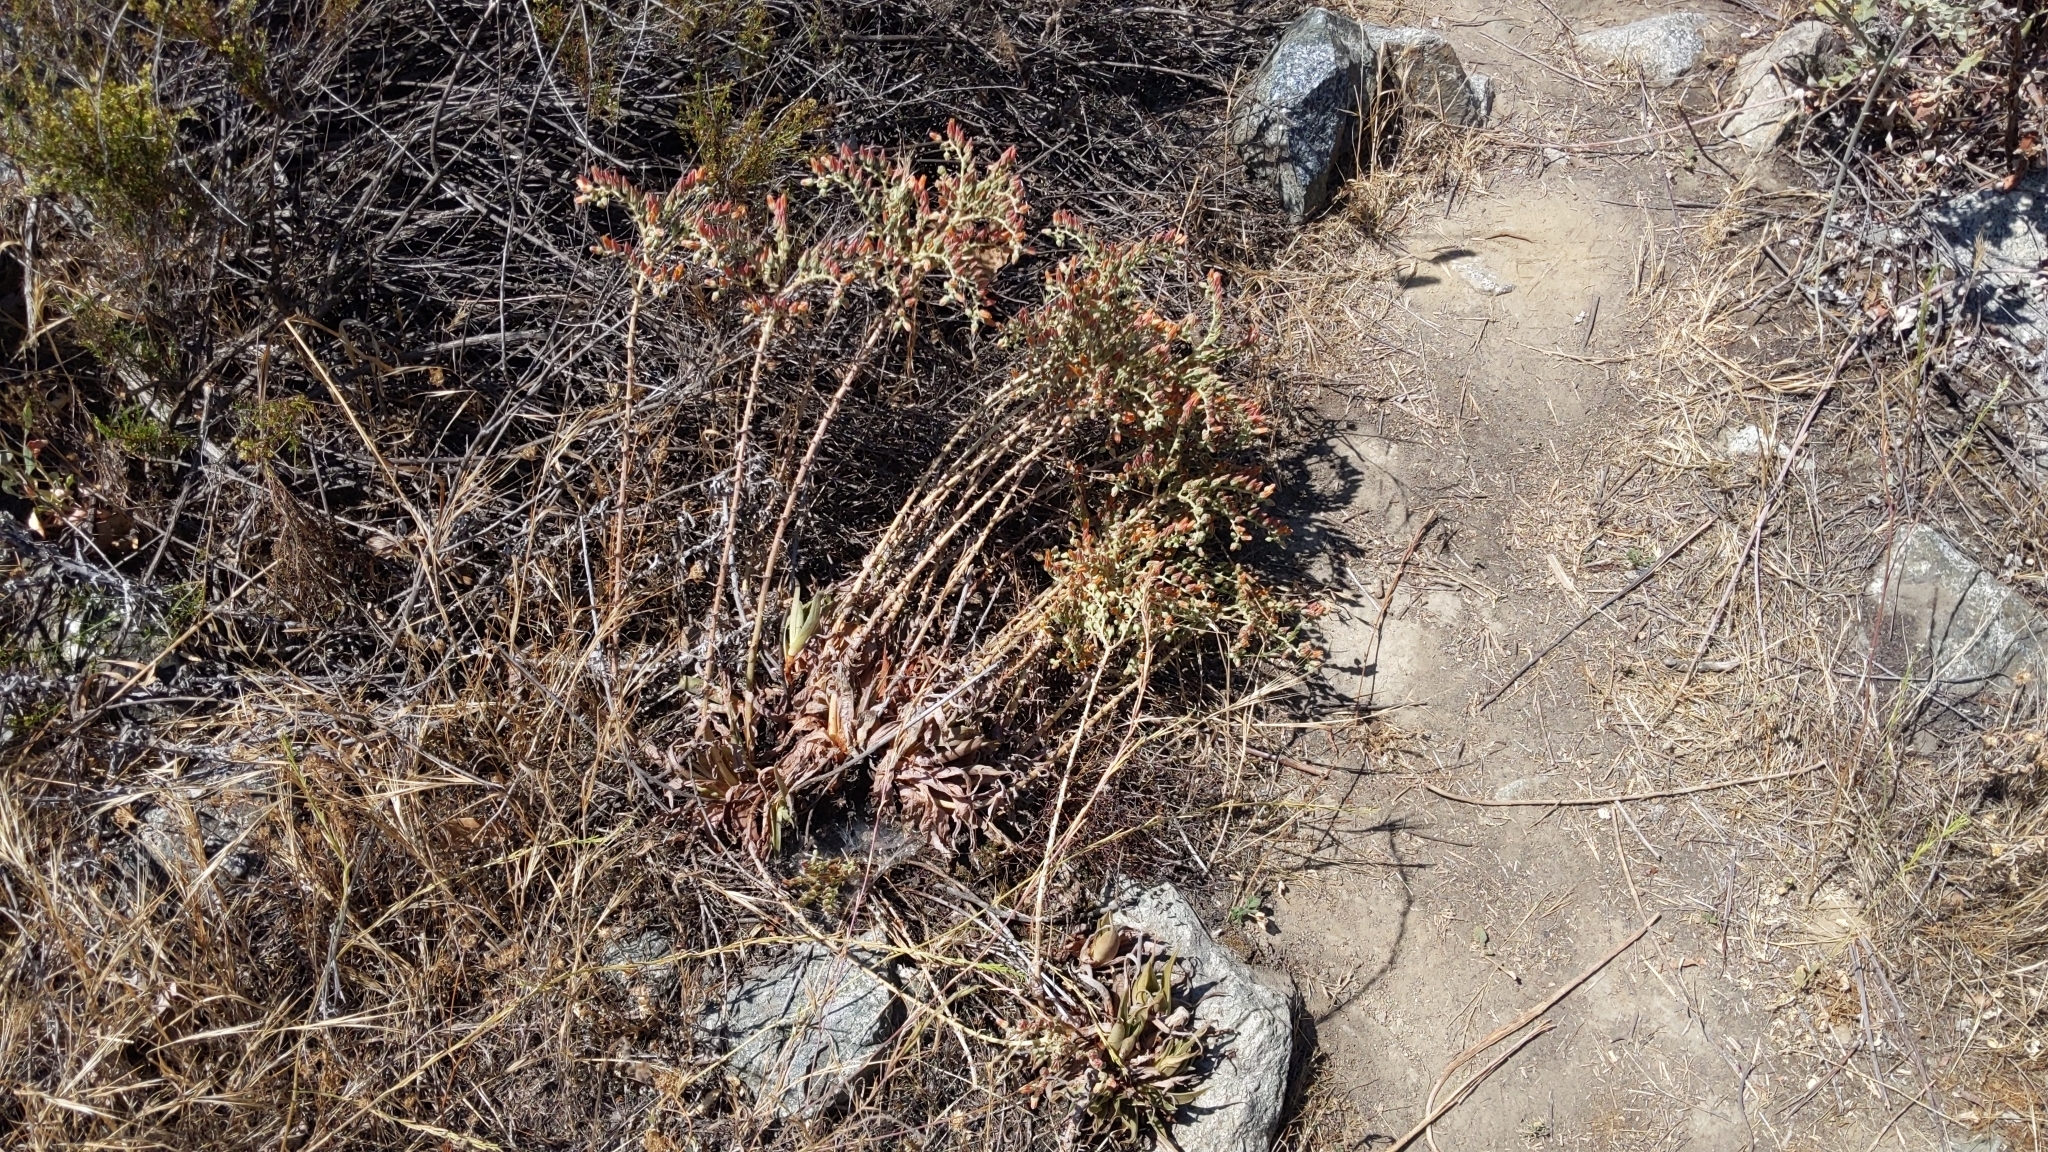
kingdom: Plantae
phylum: Tracheophyta
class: Magnoliopsida
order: Saxifragales
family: Crassulaceae
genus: Dudleya
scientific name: Dudleya lanceolata
